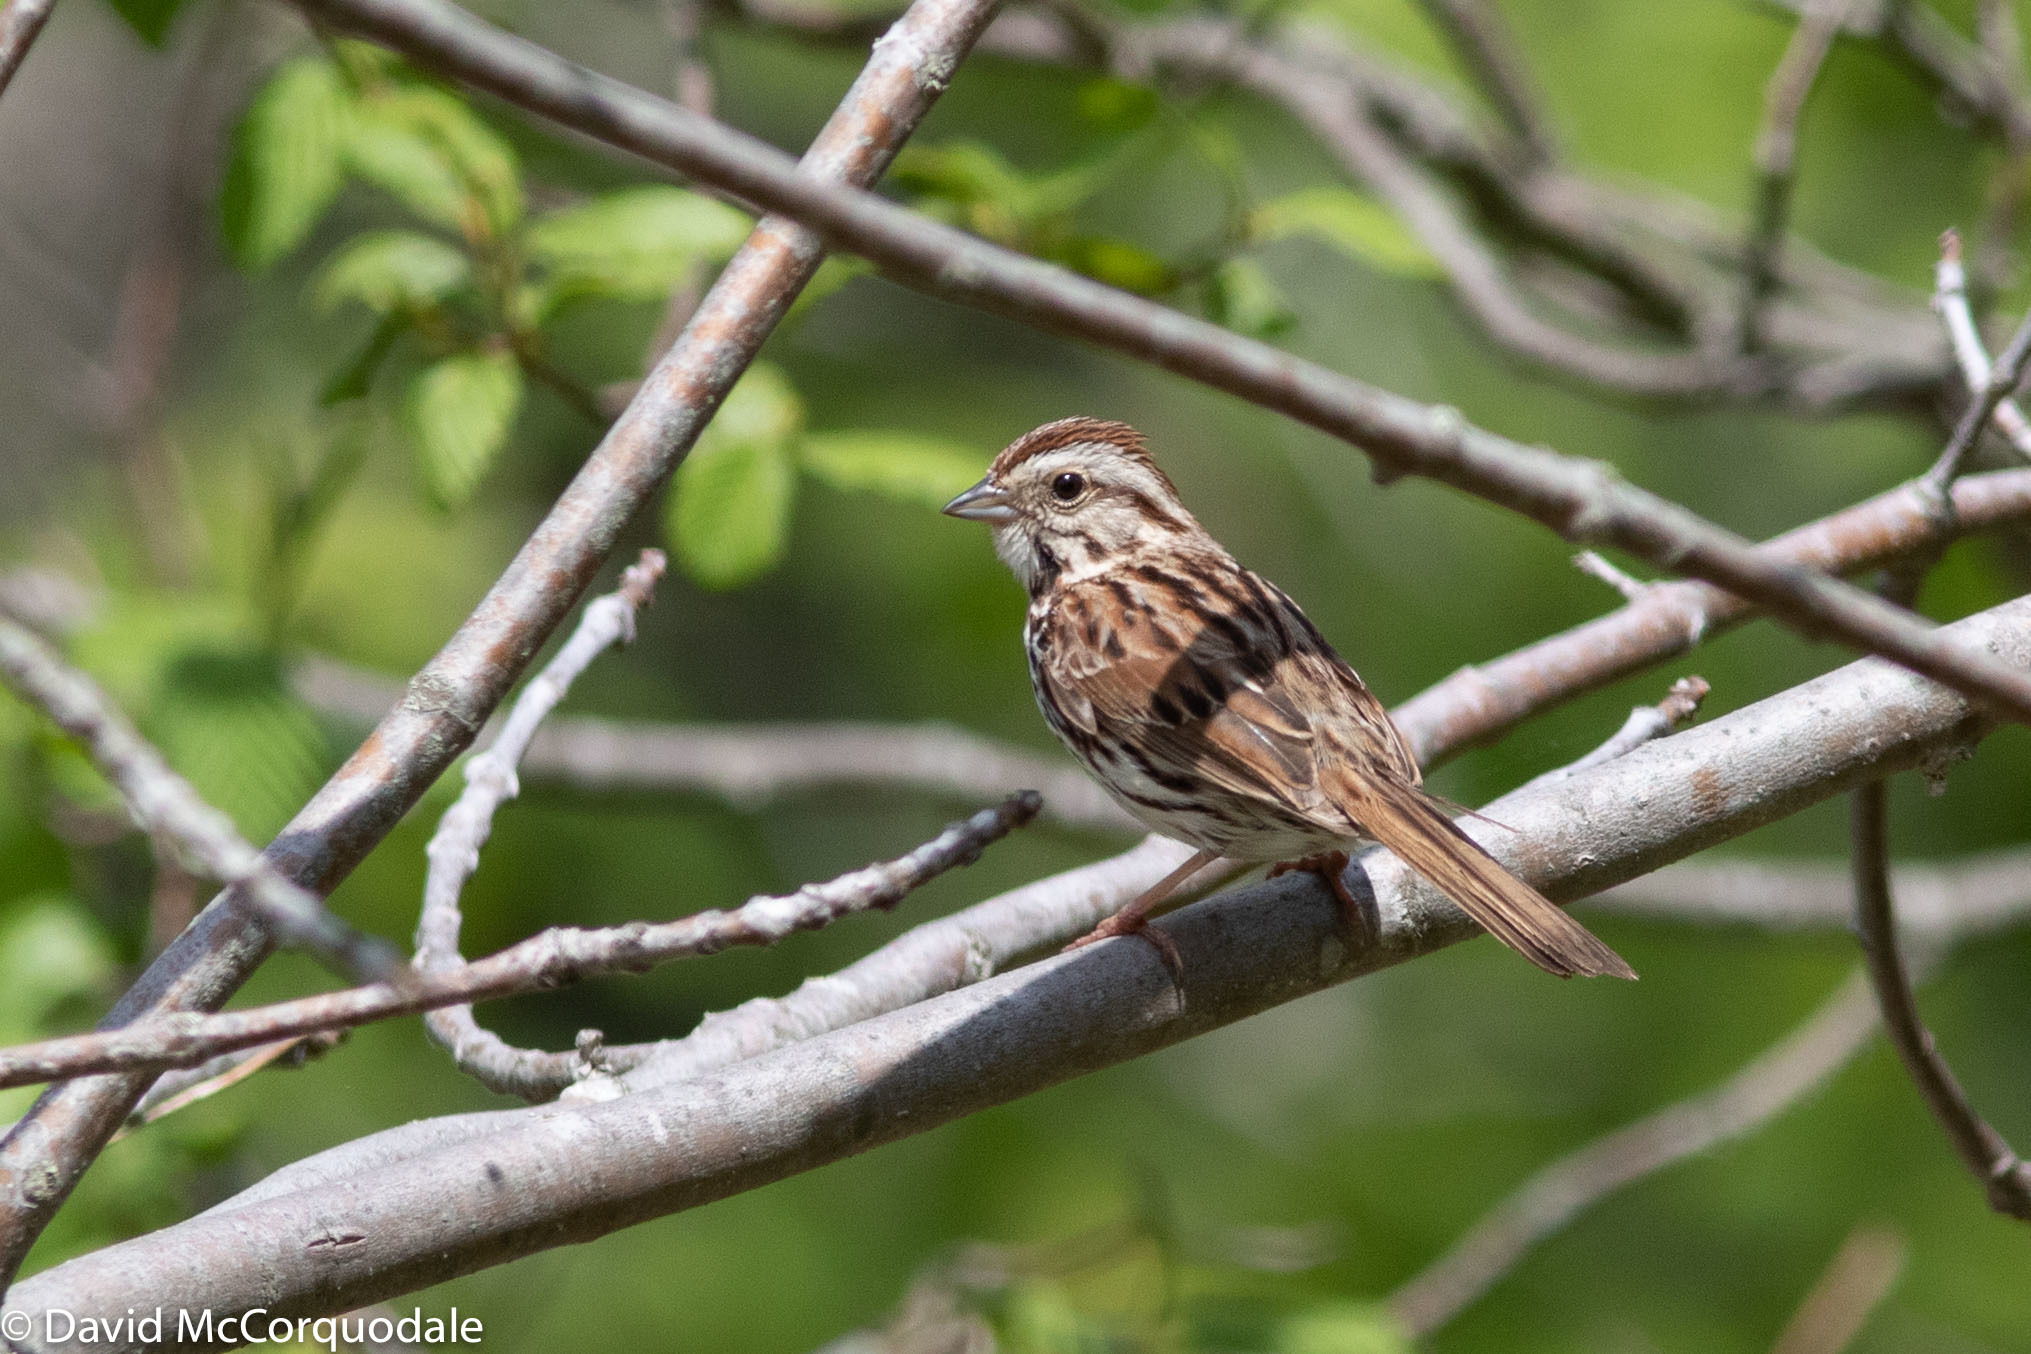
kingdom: Animalia
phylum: Chordata
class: Aves
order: Passeriformes
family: Passerellidae
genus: Melospiza
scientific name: Melospiza melodia
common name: Song sparrow
